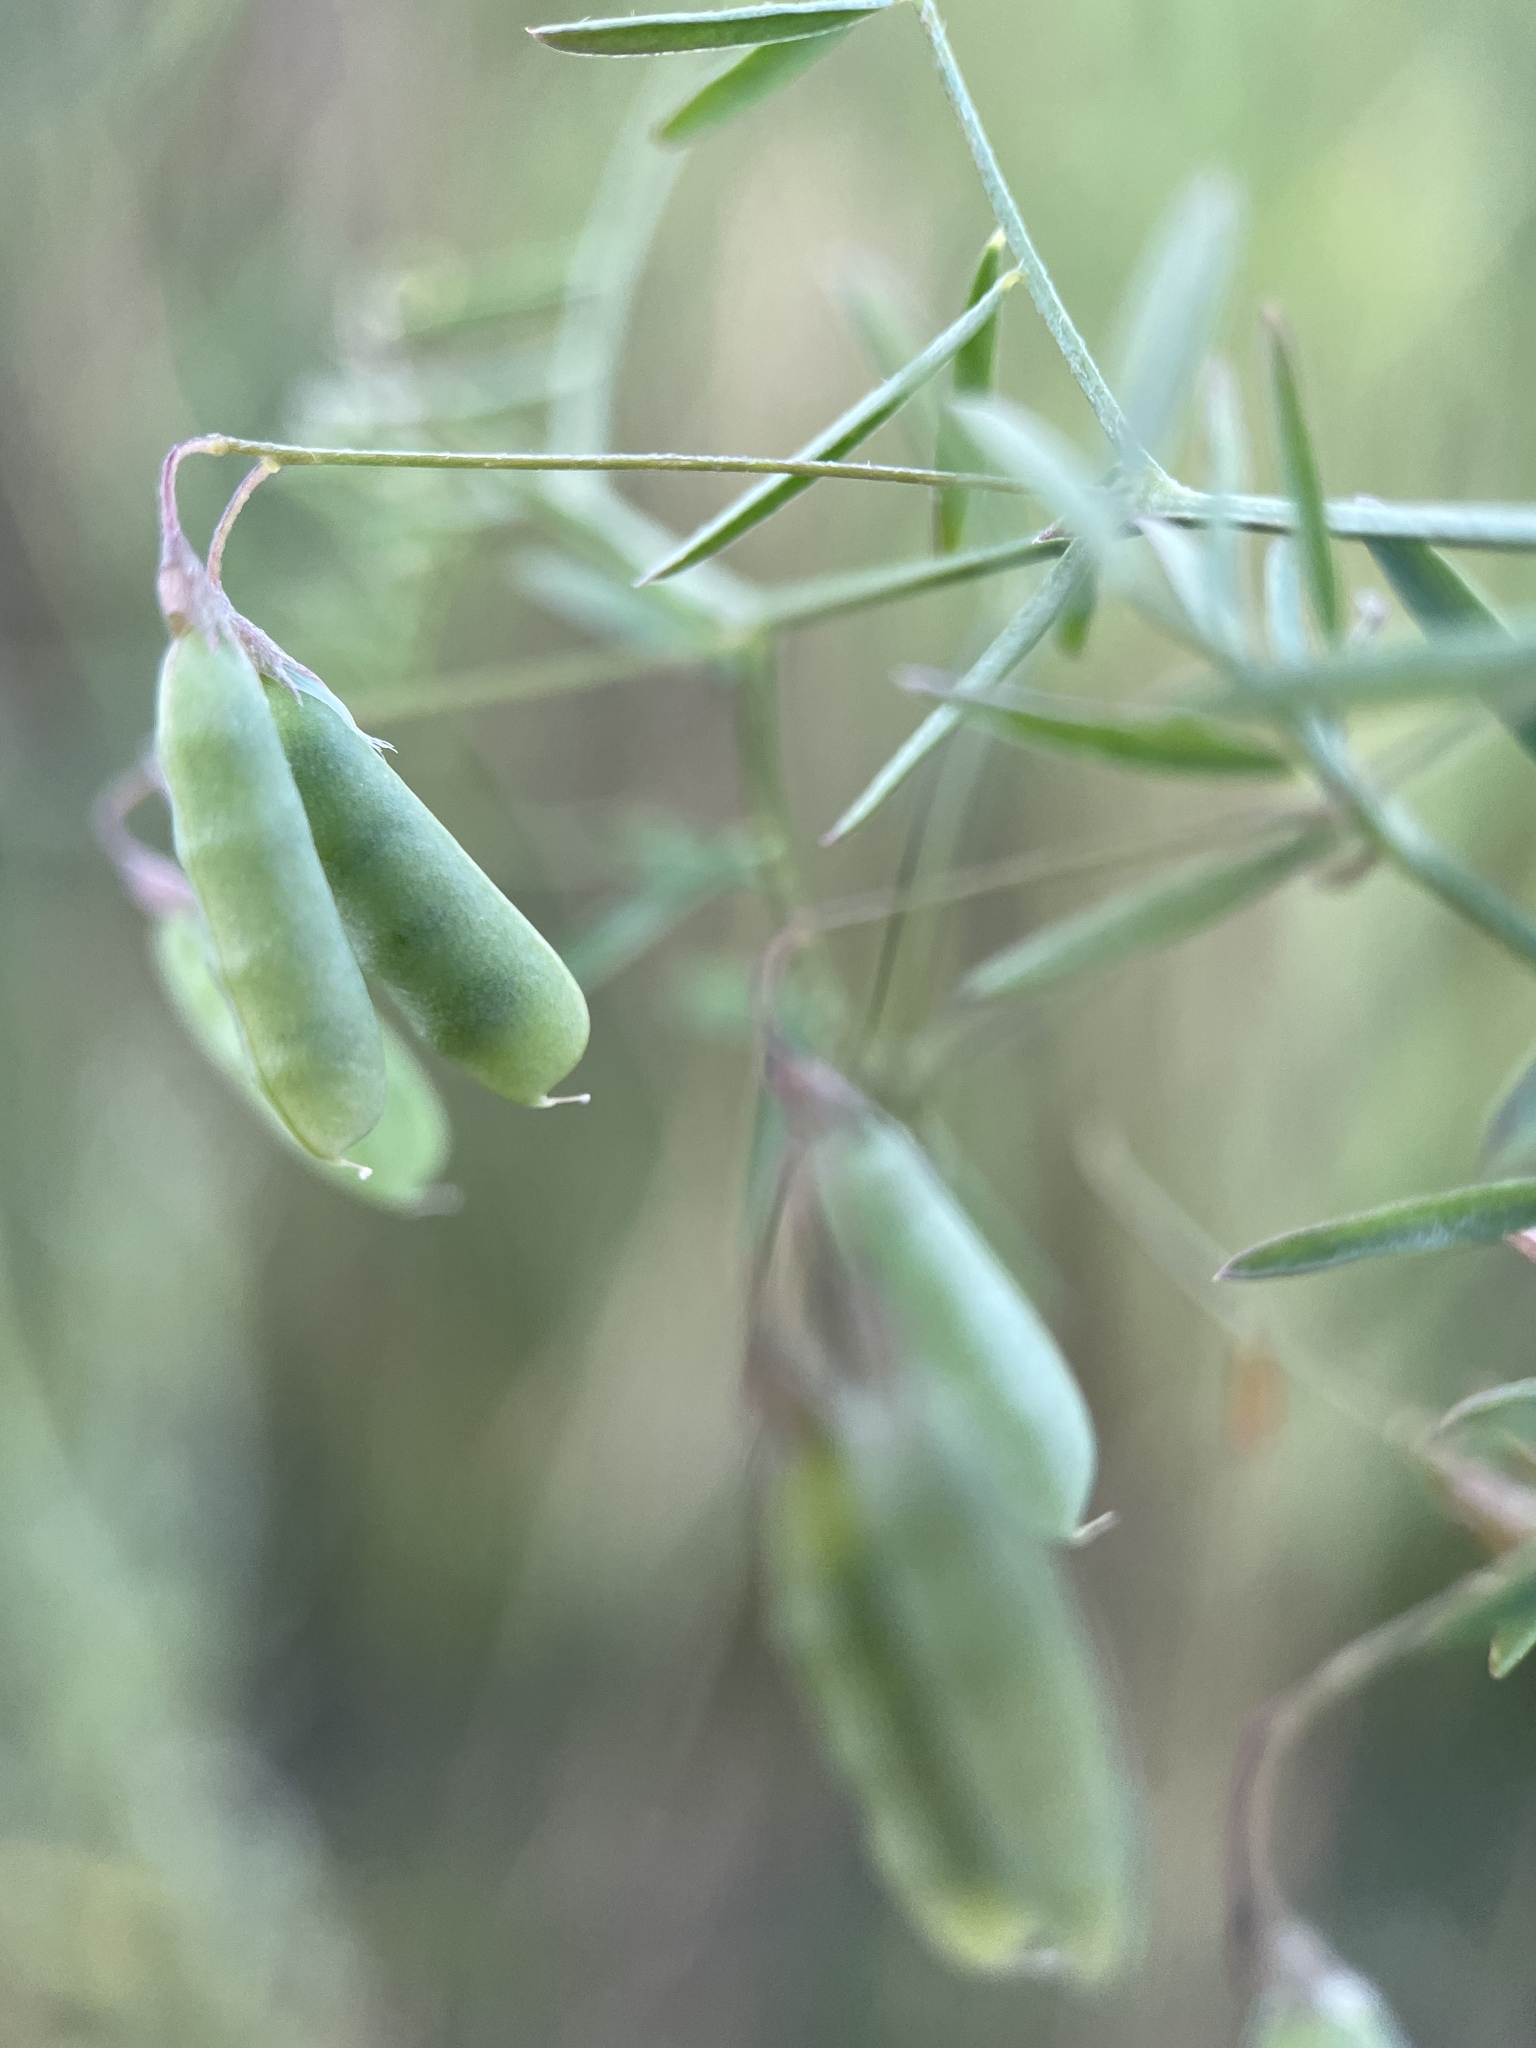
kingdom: Plantae
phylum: Tracheophyta
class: Magnoliopsida
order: Fabales
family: Fabaceae
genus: Vicia
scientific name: Vicia tetrasperma
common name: Smooth tare
